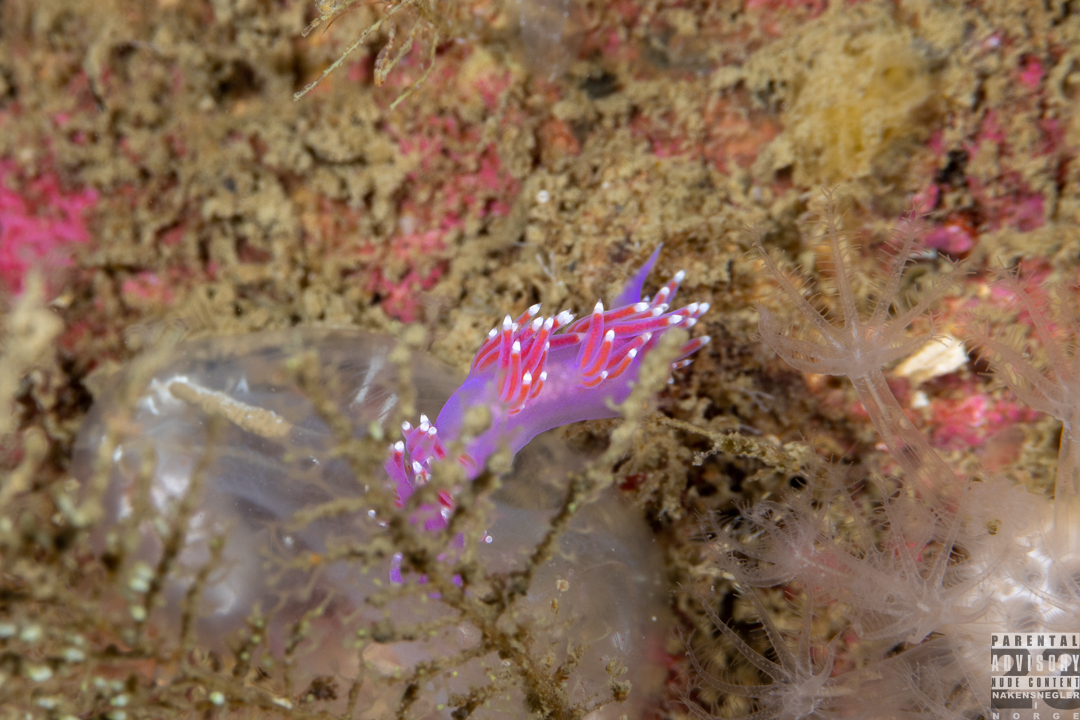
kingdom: Animalia
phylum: Mollusca
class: Gastropoda
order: Nudibranchia
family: Flabellinidae
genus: Edmundsella
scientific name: Edmundsella pedata
